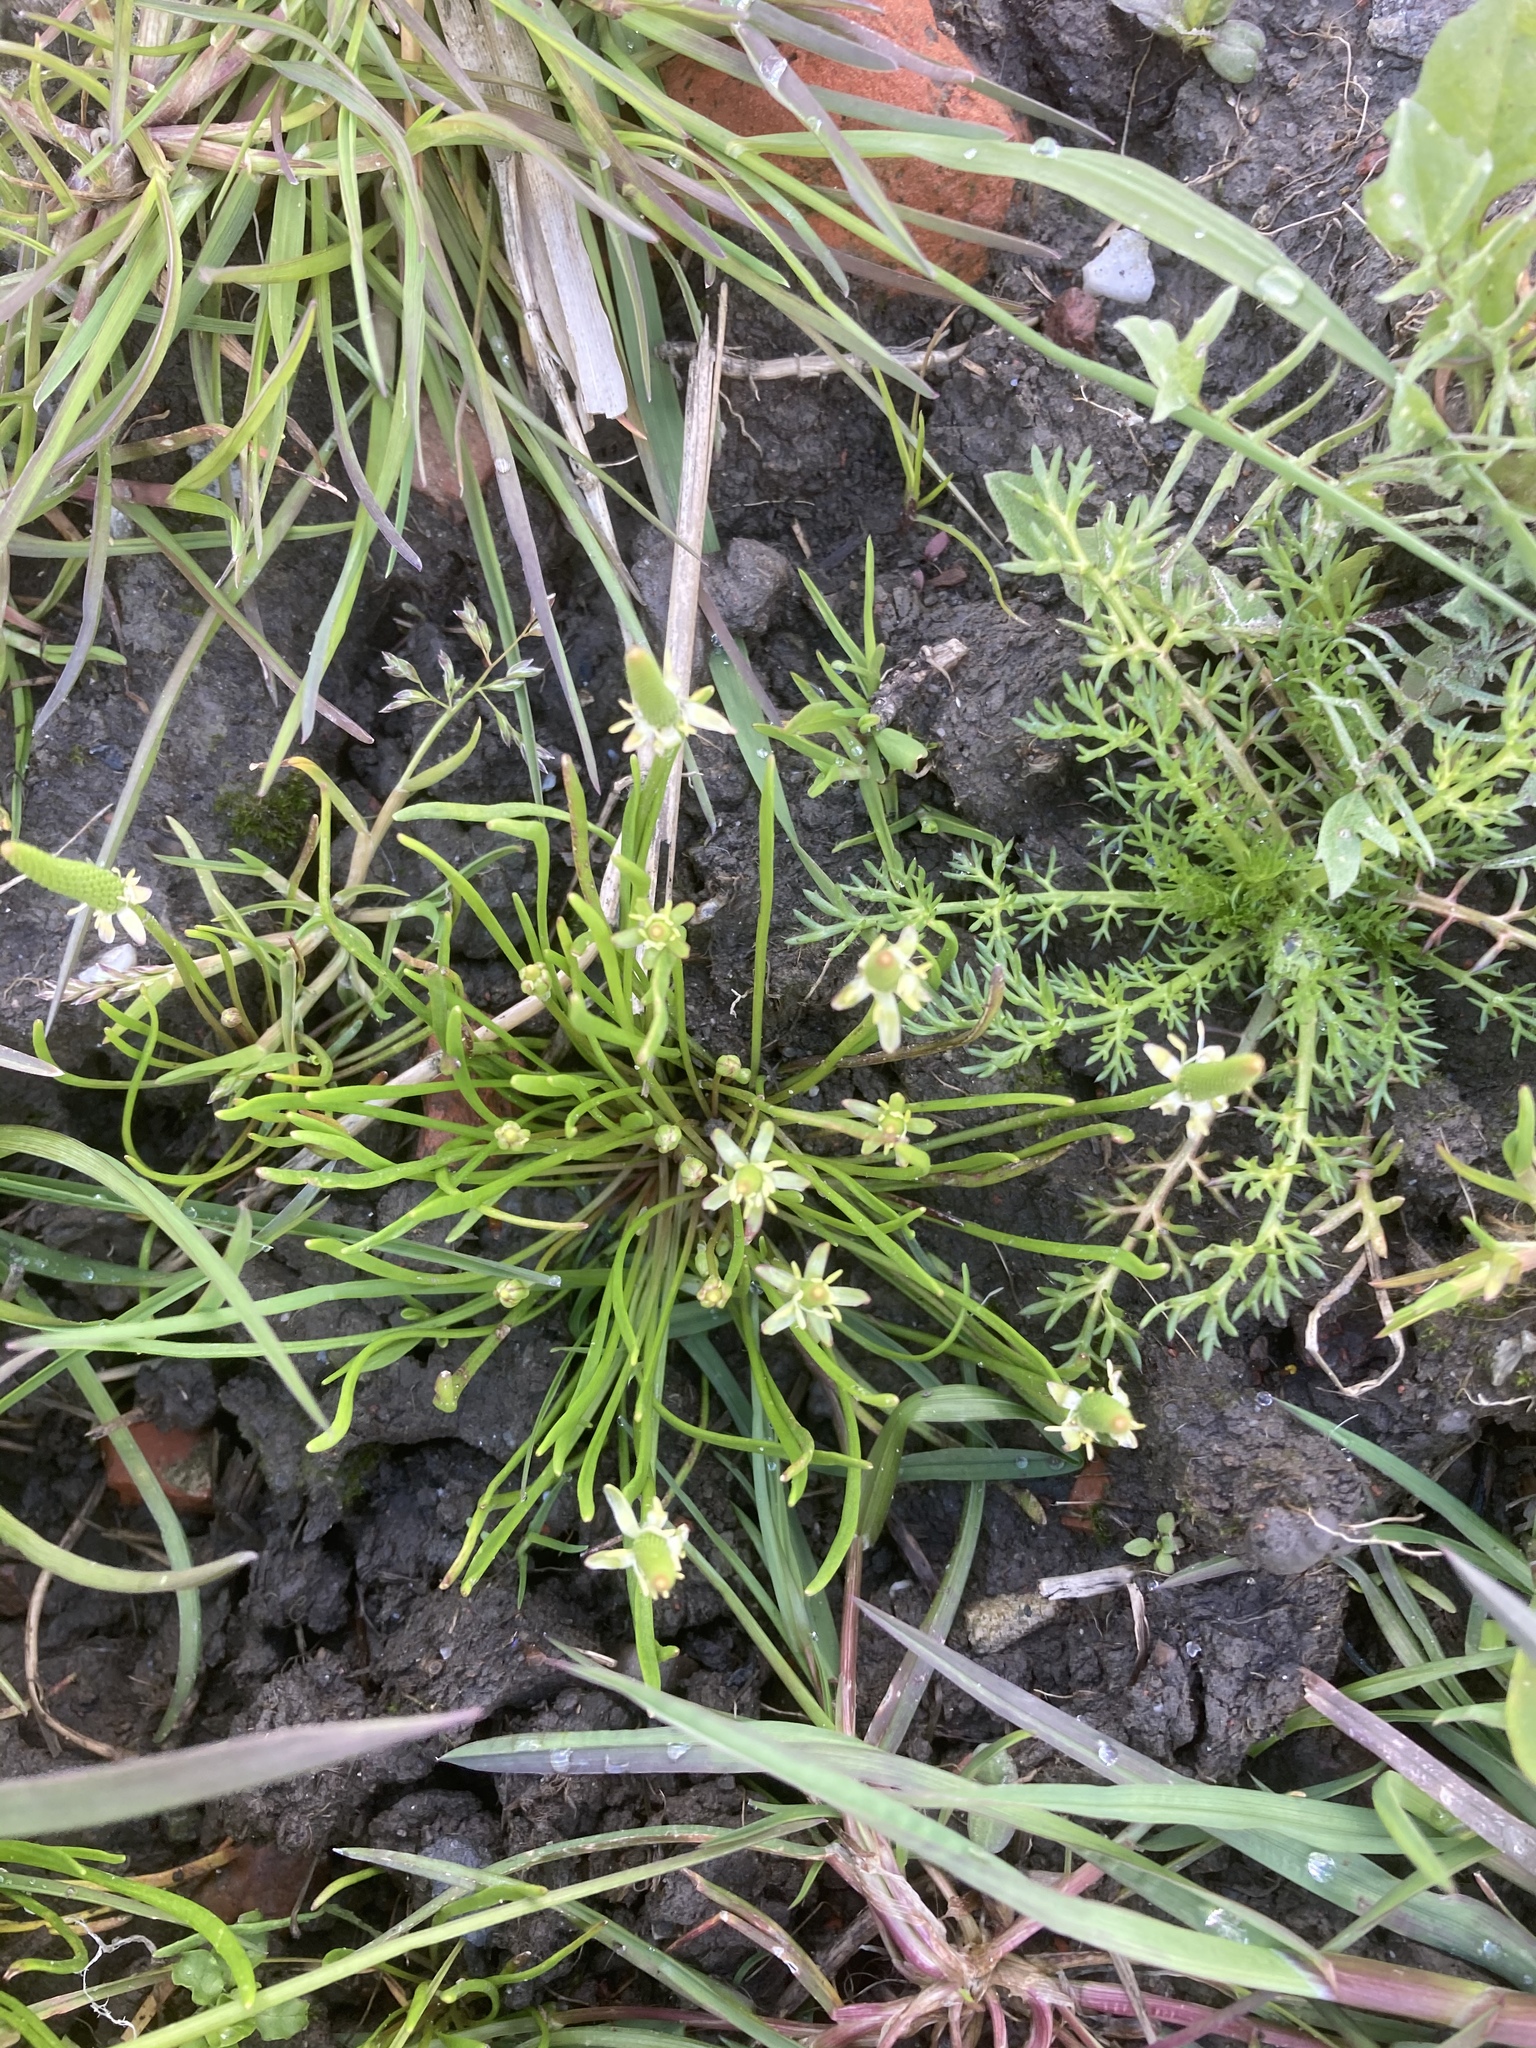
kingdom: Plantae
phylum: Tracheophyta
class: Magnoliopsida
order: Ranunculales
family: Ranunculaceae
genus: Myosurus
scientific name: Myosurus minimus
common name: Mousetail
